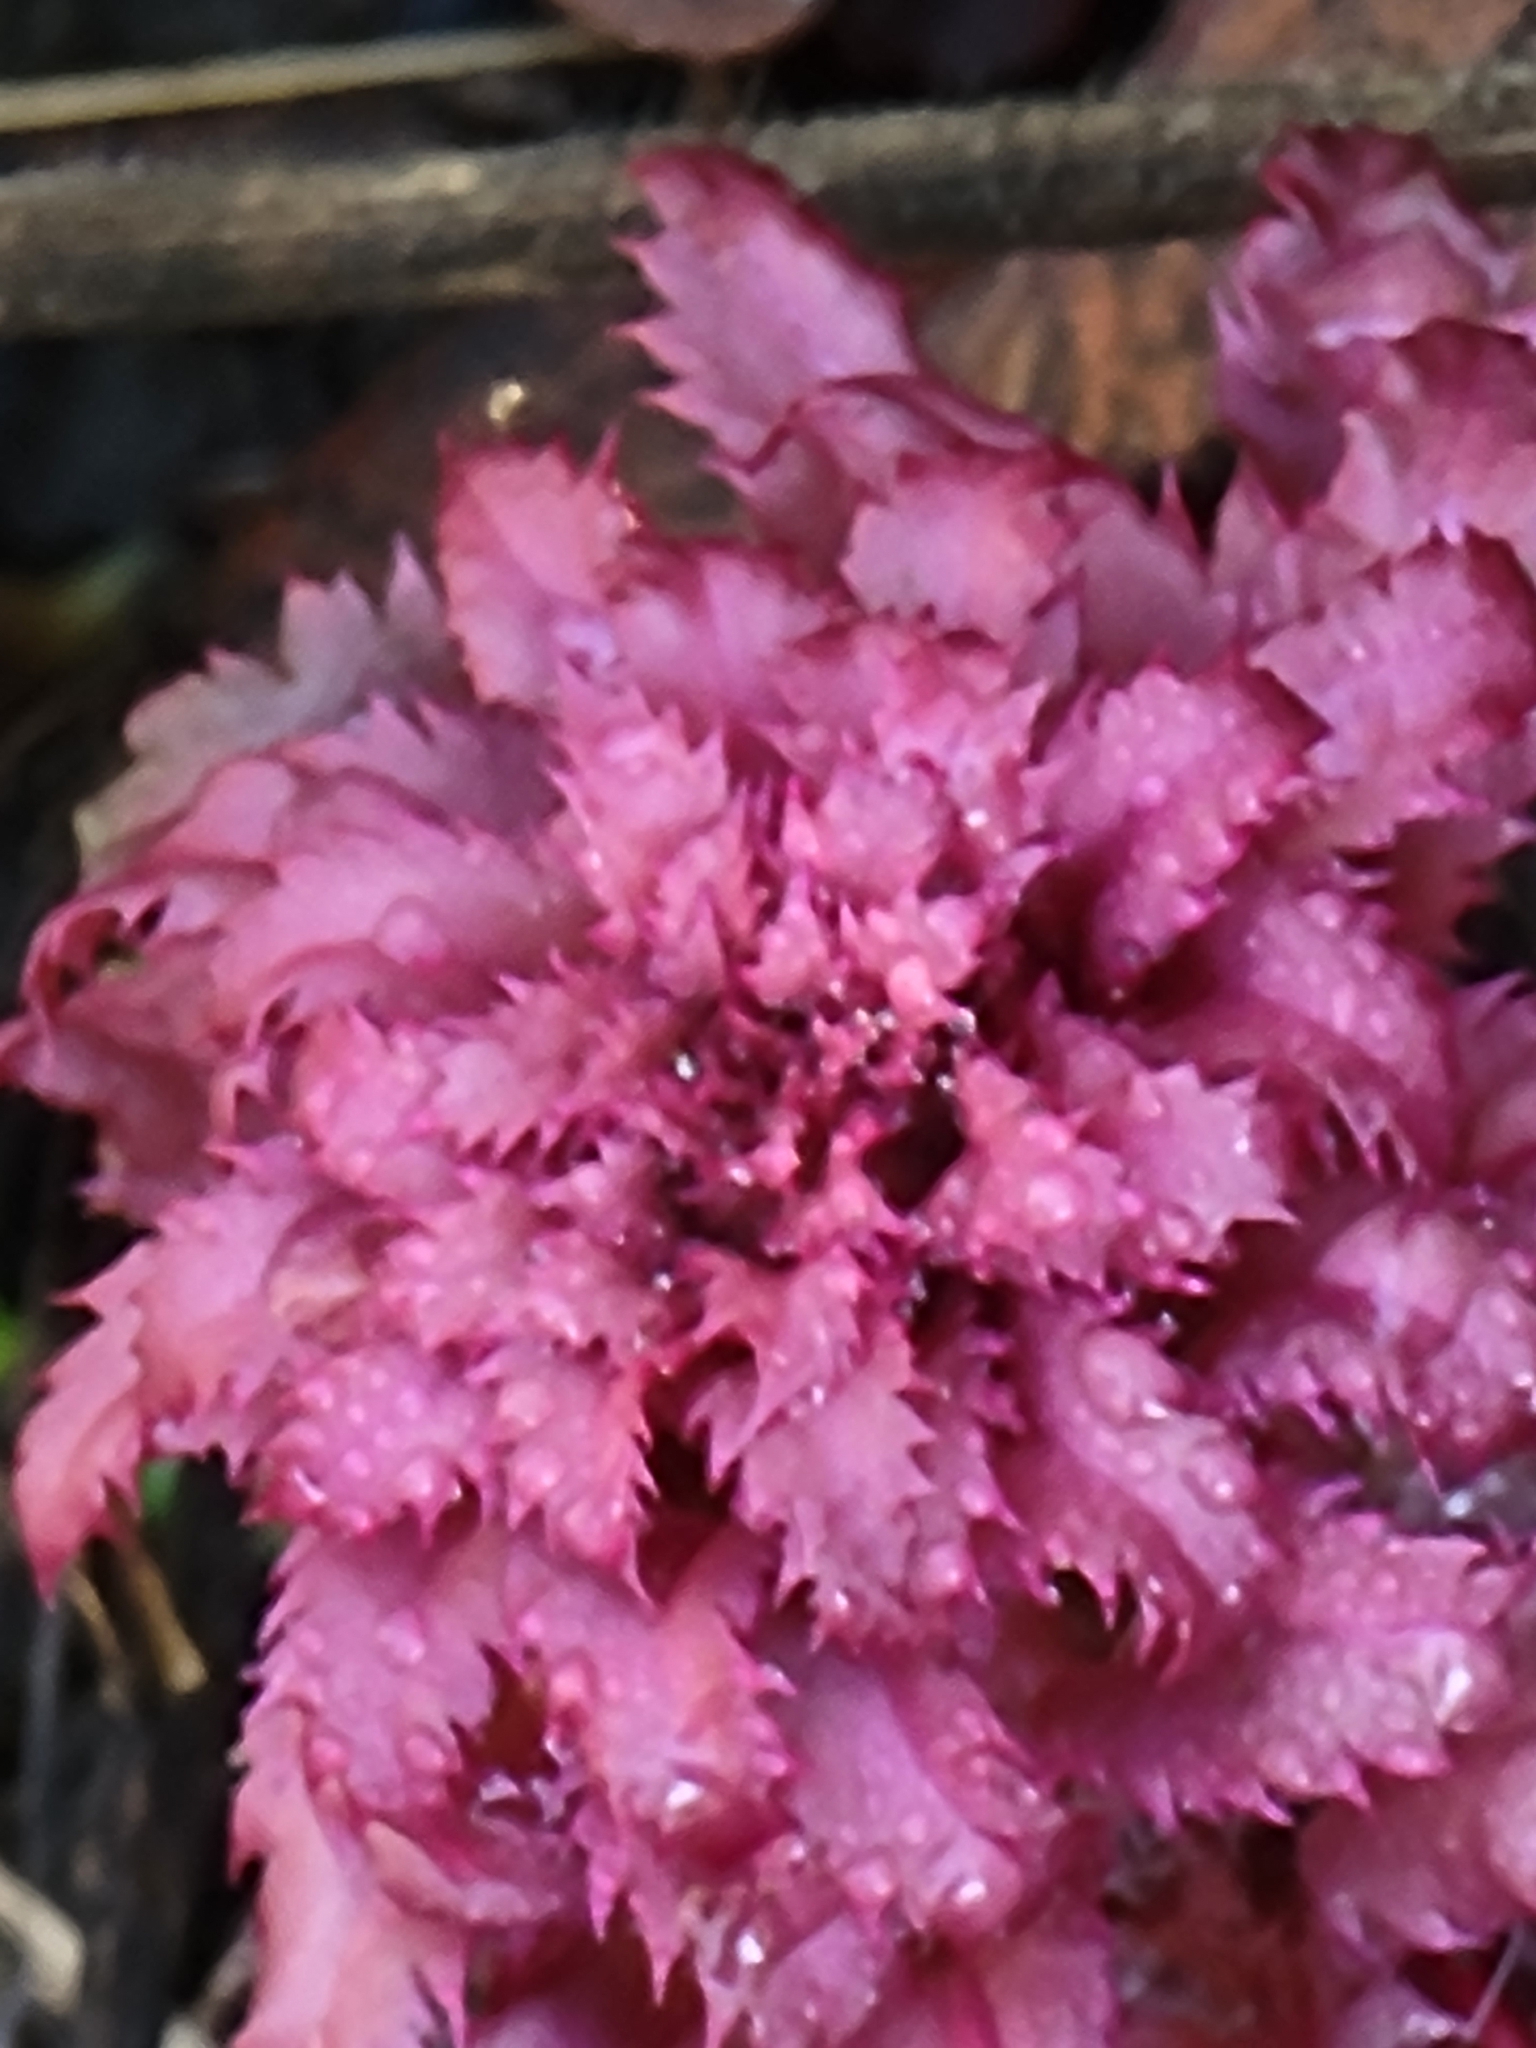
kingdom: Plantae
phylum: Tracheophyta
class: Magnoliopsida
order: Lamiales
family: Orobanchaceae
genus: Pedicularis
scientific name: Pedicularis densiflora
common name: Indian warrior
